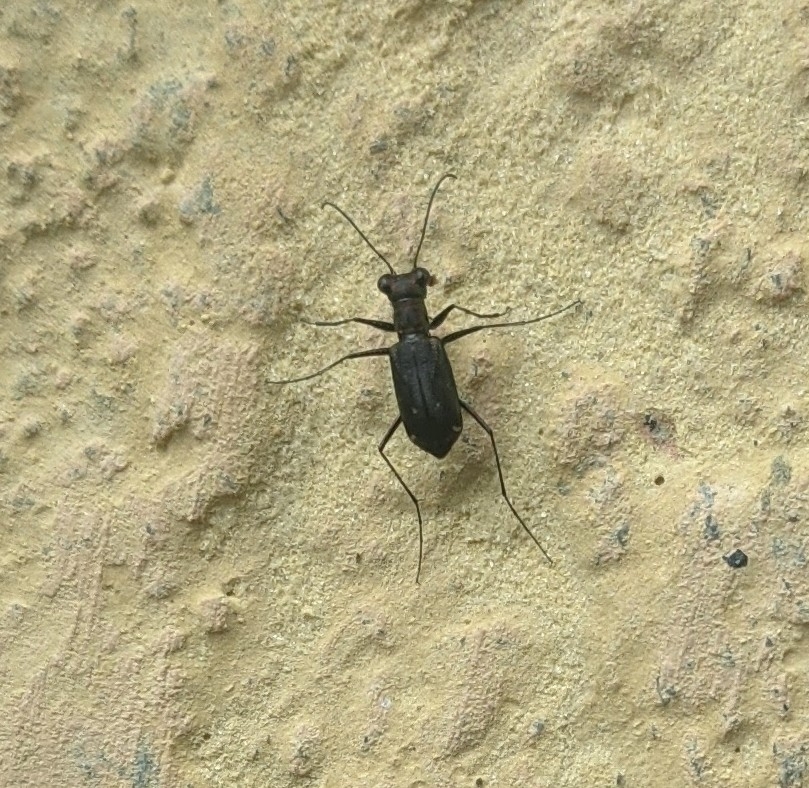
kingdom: Animalia
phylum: Arthropoda
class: Insecta
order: Coleoptera
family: Carabidae
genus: Cylindera
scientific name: Cylindera belli
